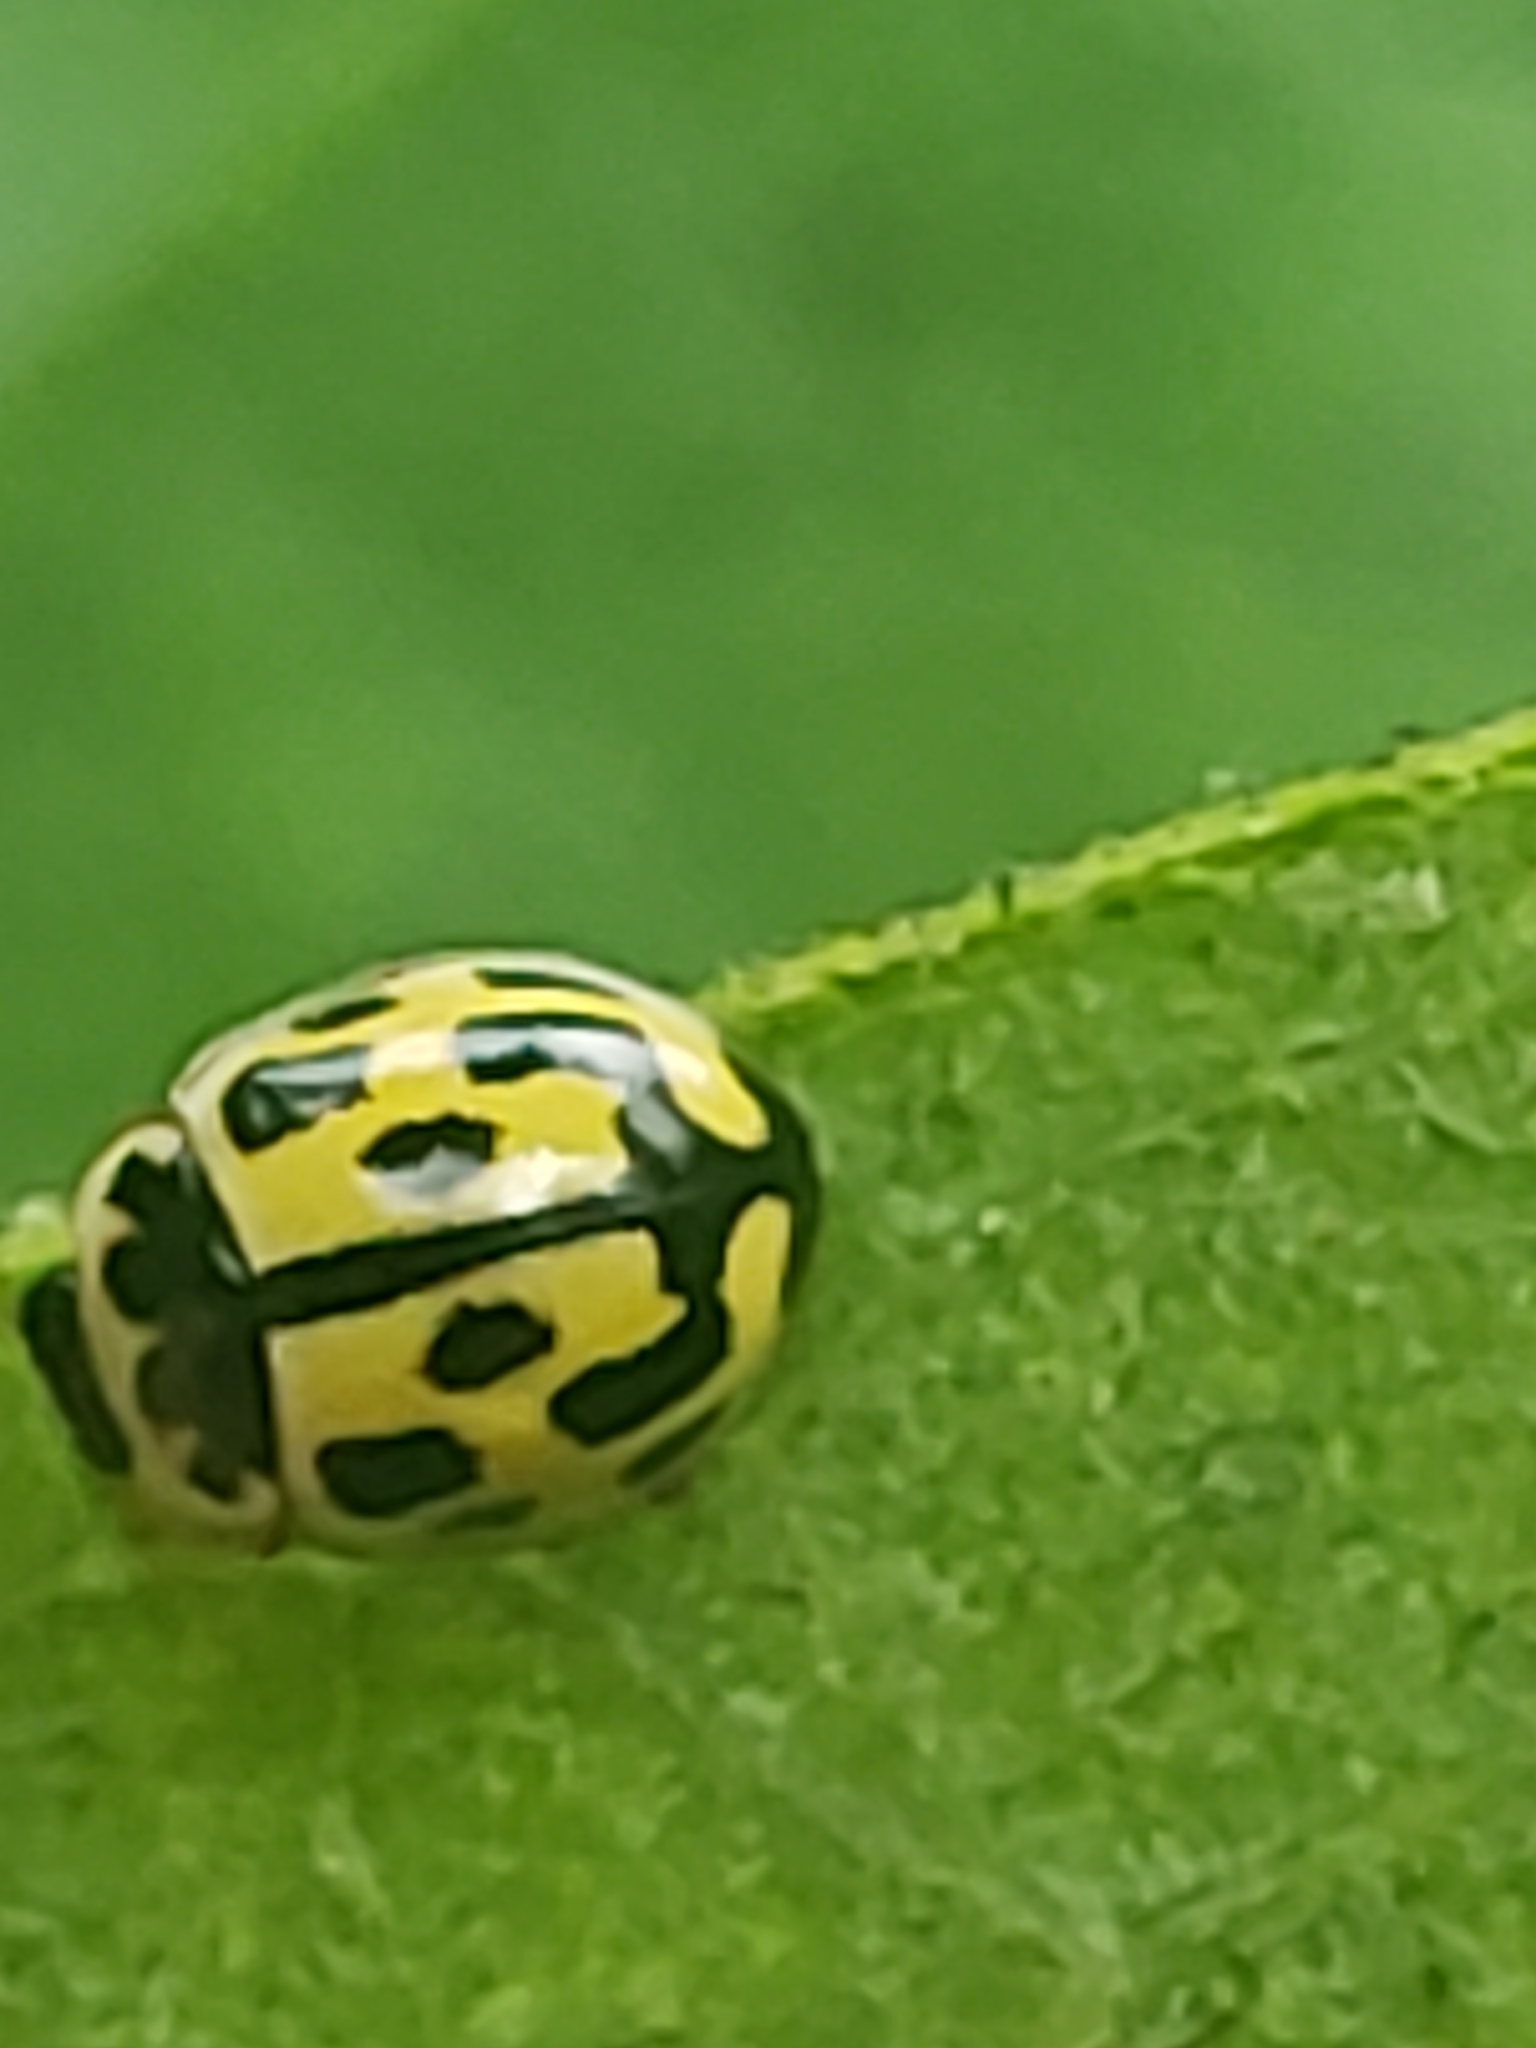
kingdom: Animalia
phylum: Arthropoda
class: Insecta
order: Coleoptera
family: Coccinellidae
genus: Propylaea
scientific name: Propylaea quatuordecimpunctata
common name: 14-spotted ladybird beetle
